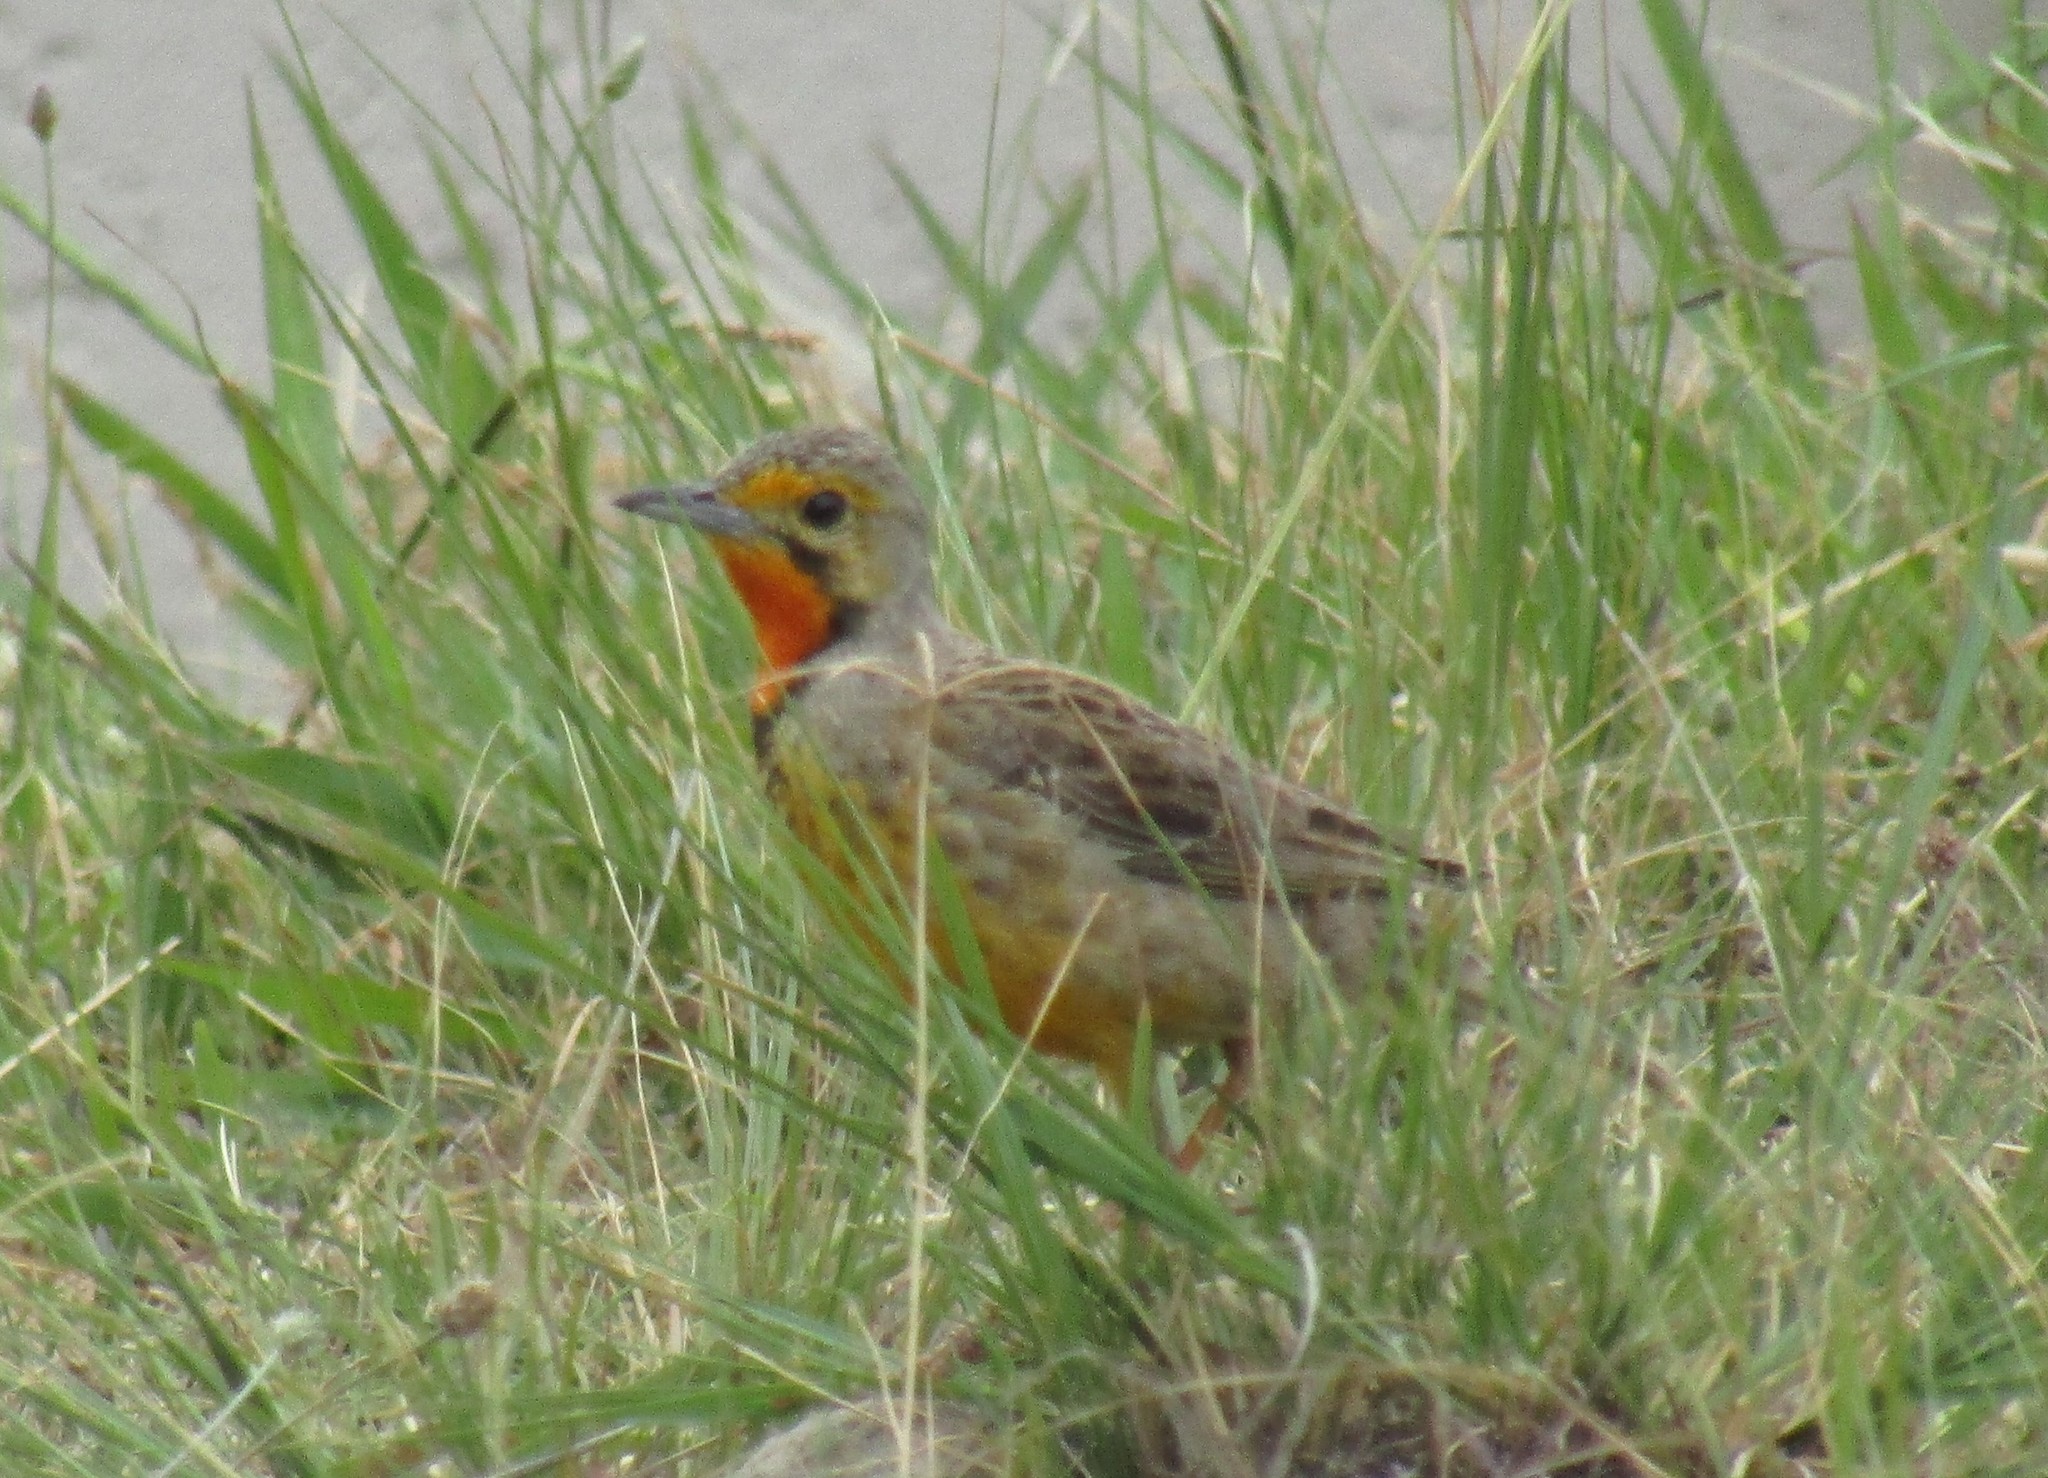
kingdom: Animalia
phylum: Chordata
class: Aves
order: Passeriformes
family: Motacillidae
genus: Macronyx
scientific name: Macronyx capensis
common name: Cape longclaw
